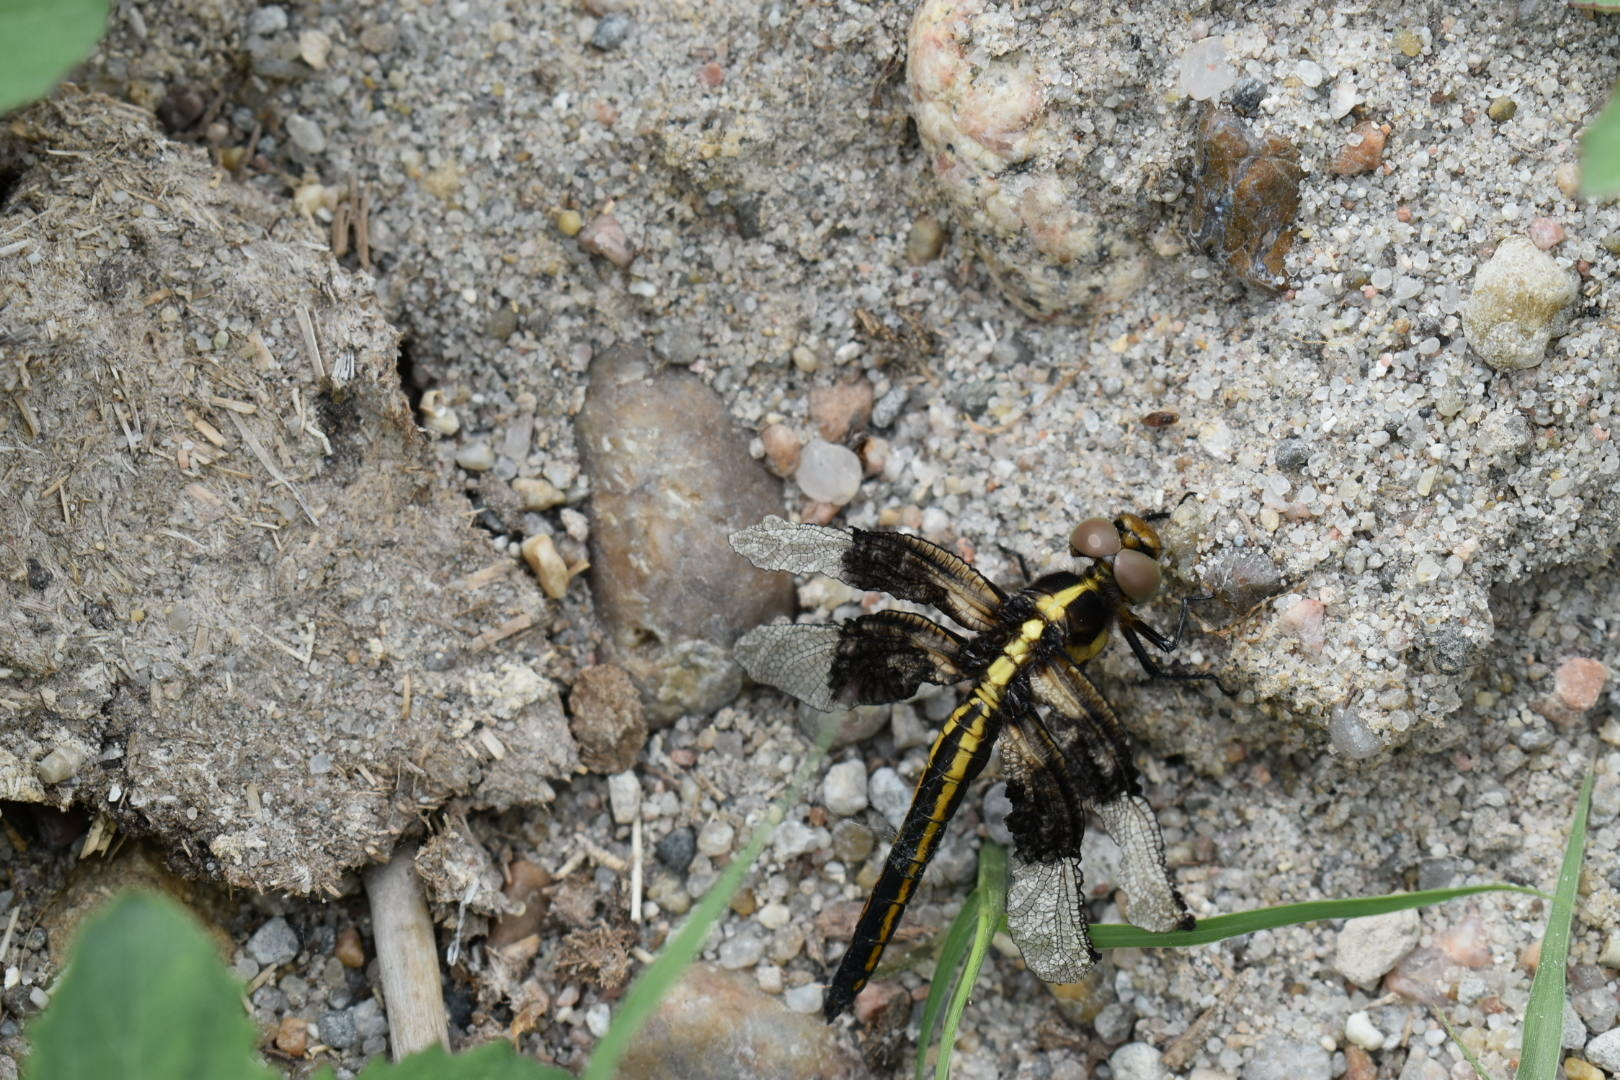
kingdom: Animalia
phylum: Arthropoda
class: Insecta
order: Odonata
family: Libellulidae
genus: Libellula
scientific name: Libellula luctuosa
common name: Widow skimmer
